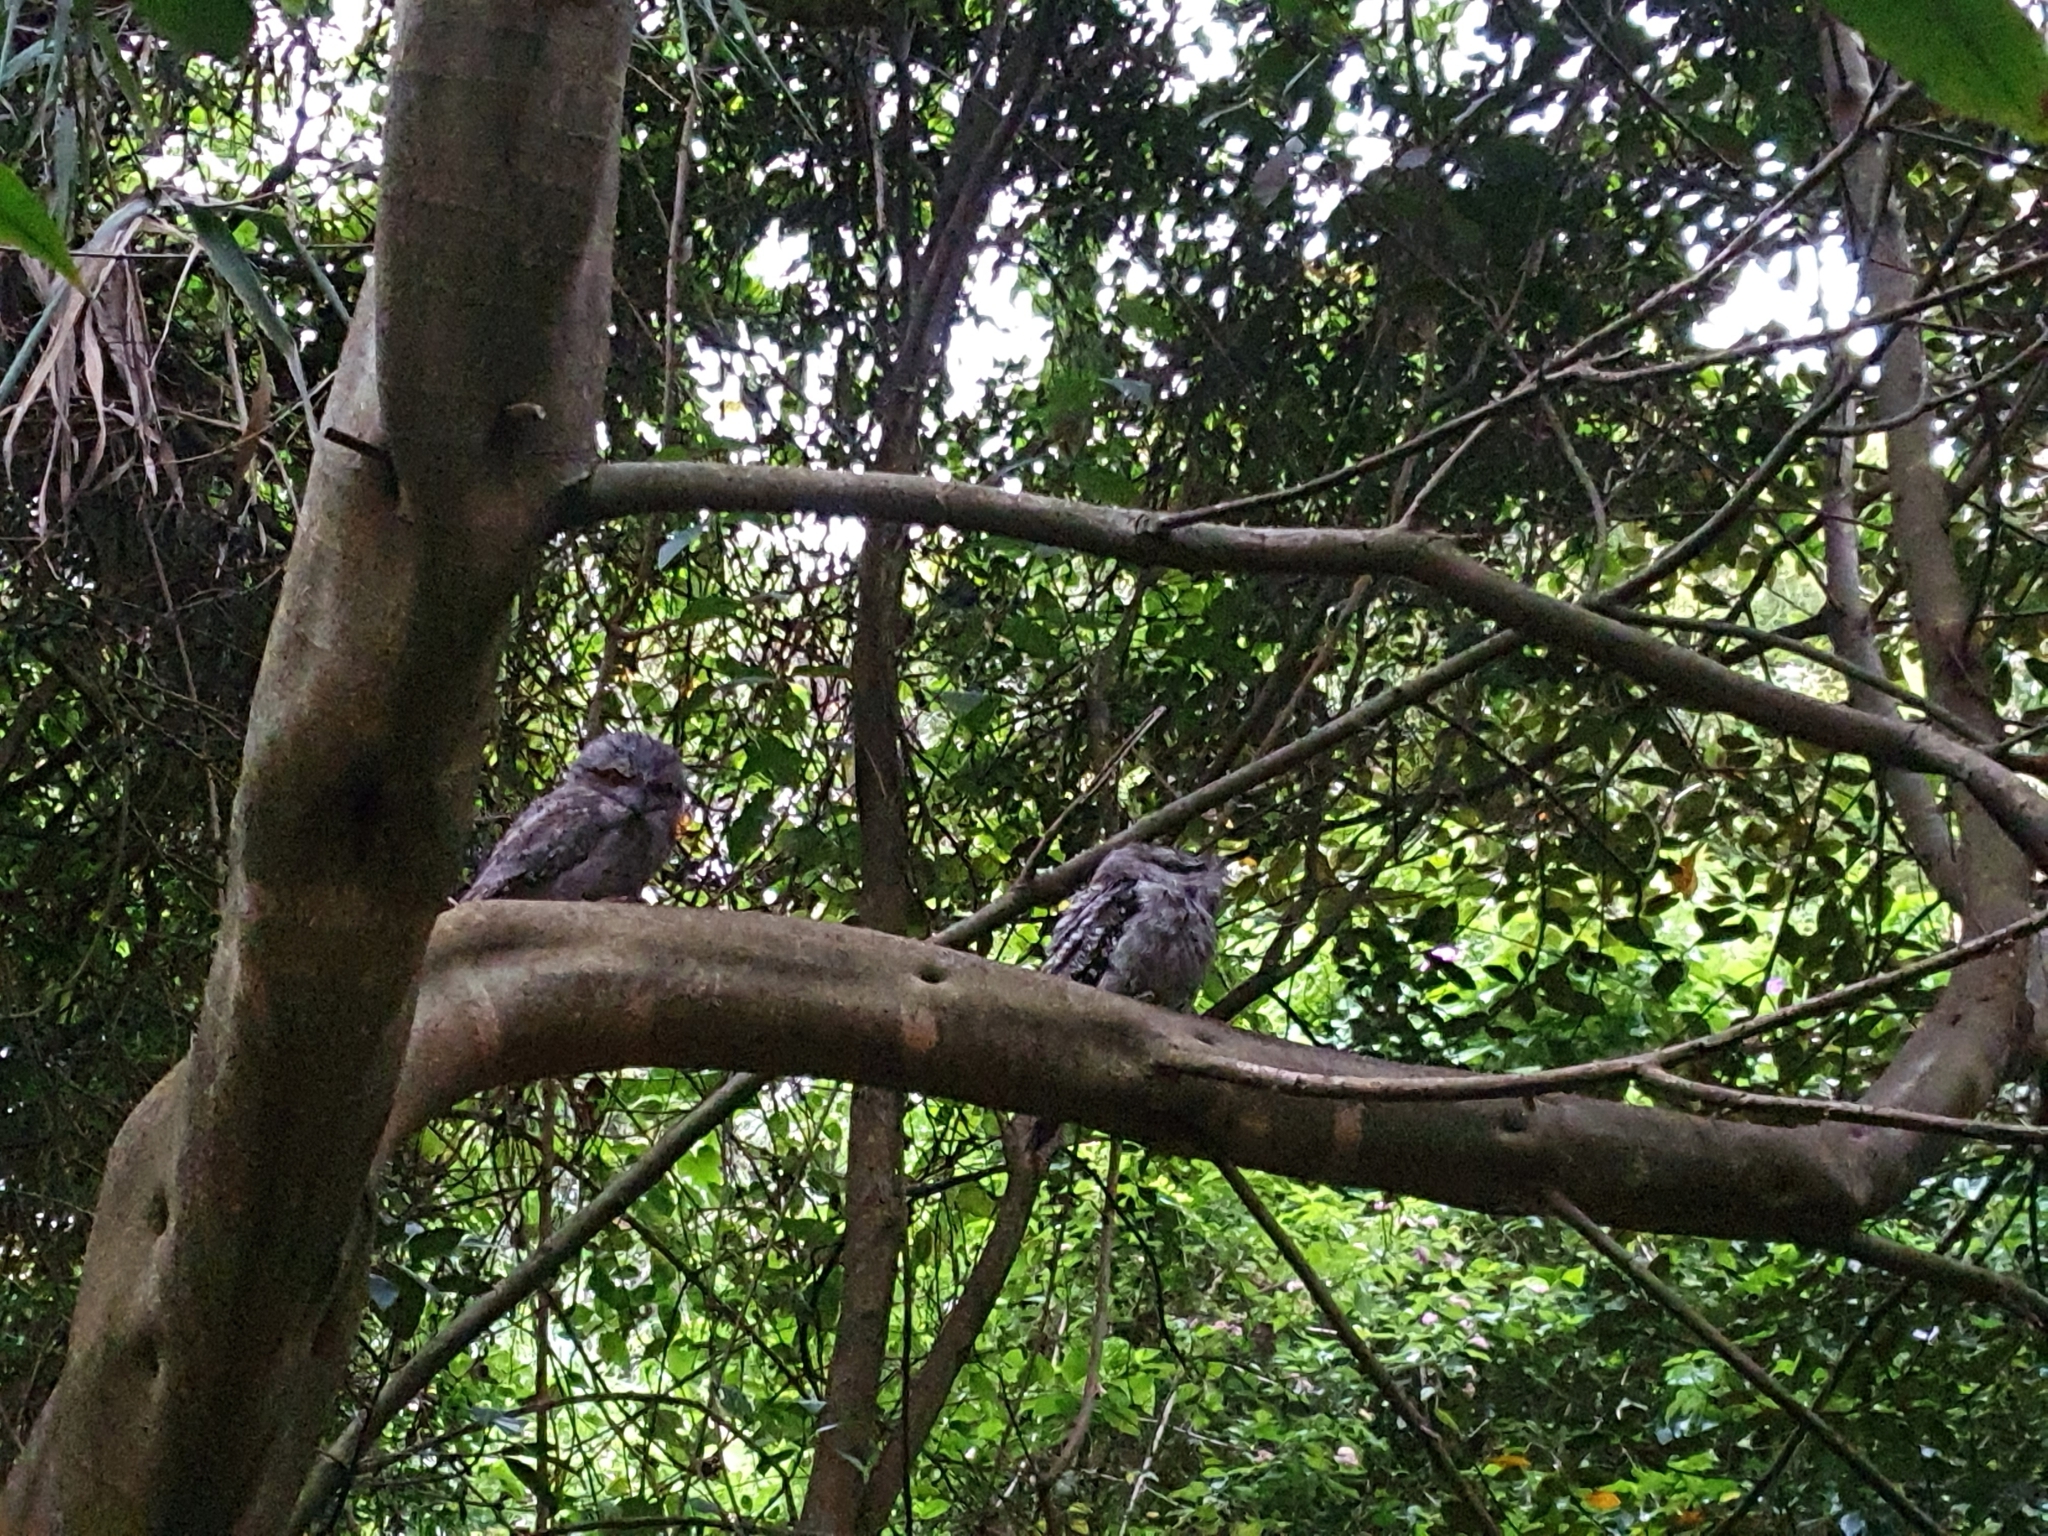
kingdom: Animalia
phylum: Chordata
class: Aves
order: Caprimulgiformes
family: Podargidae
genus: Podargus
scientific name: Podargus strigoides
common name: Tawny frogmouth
